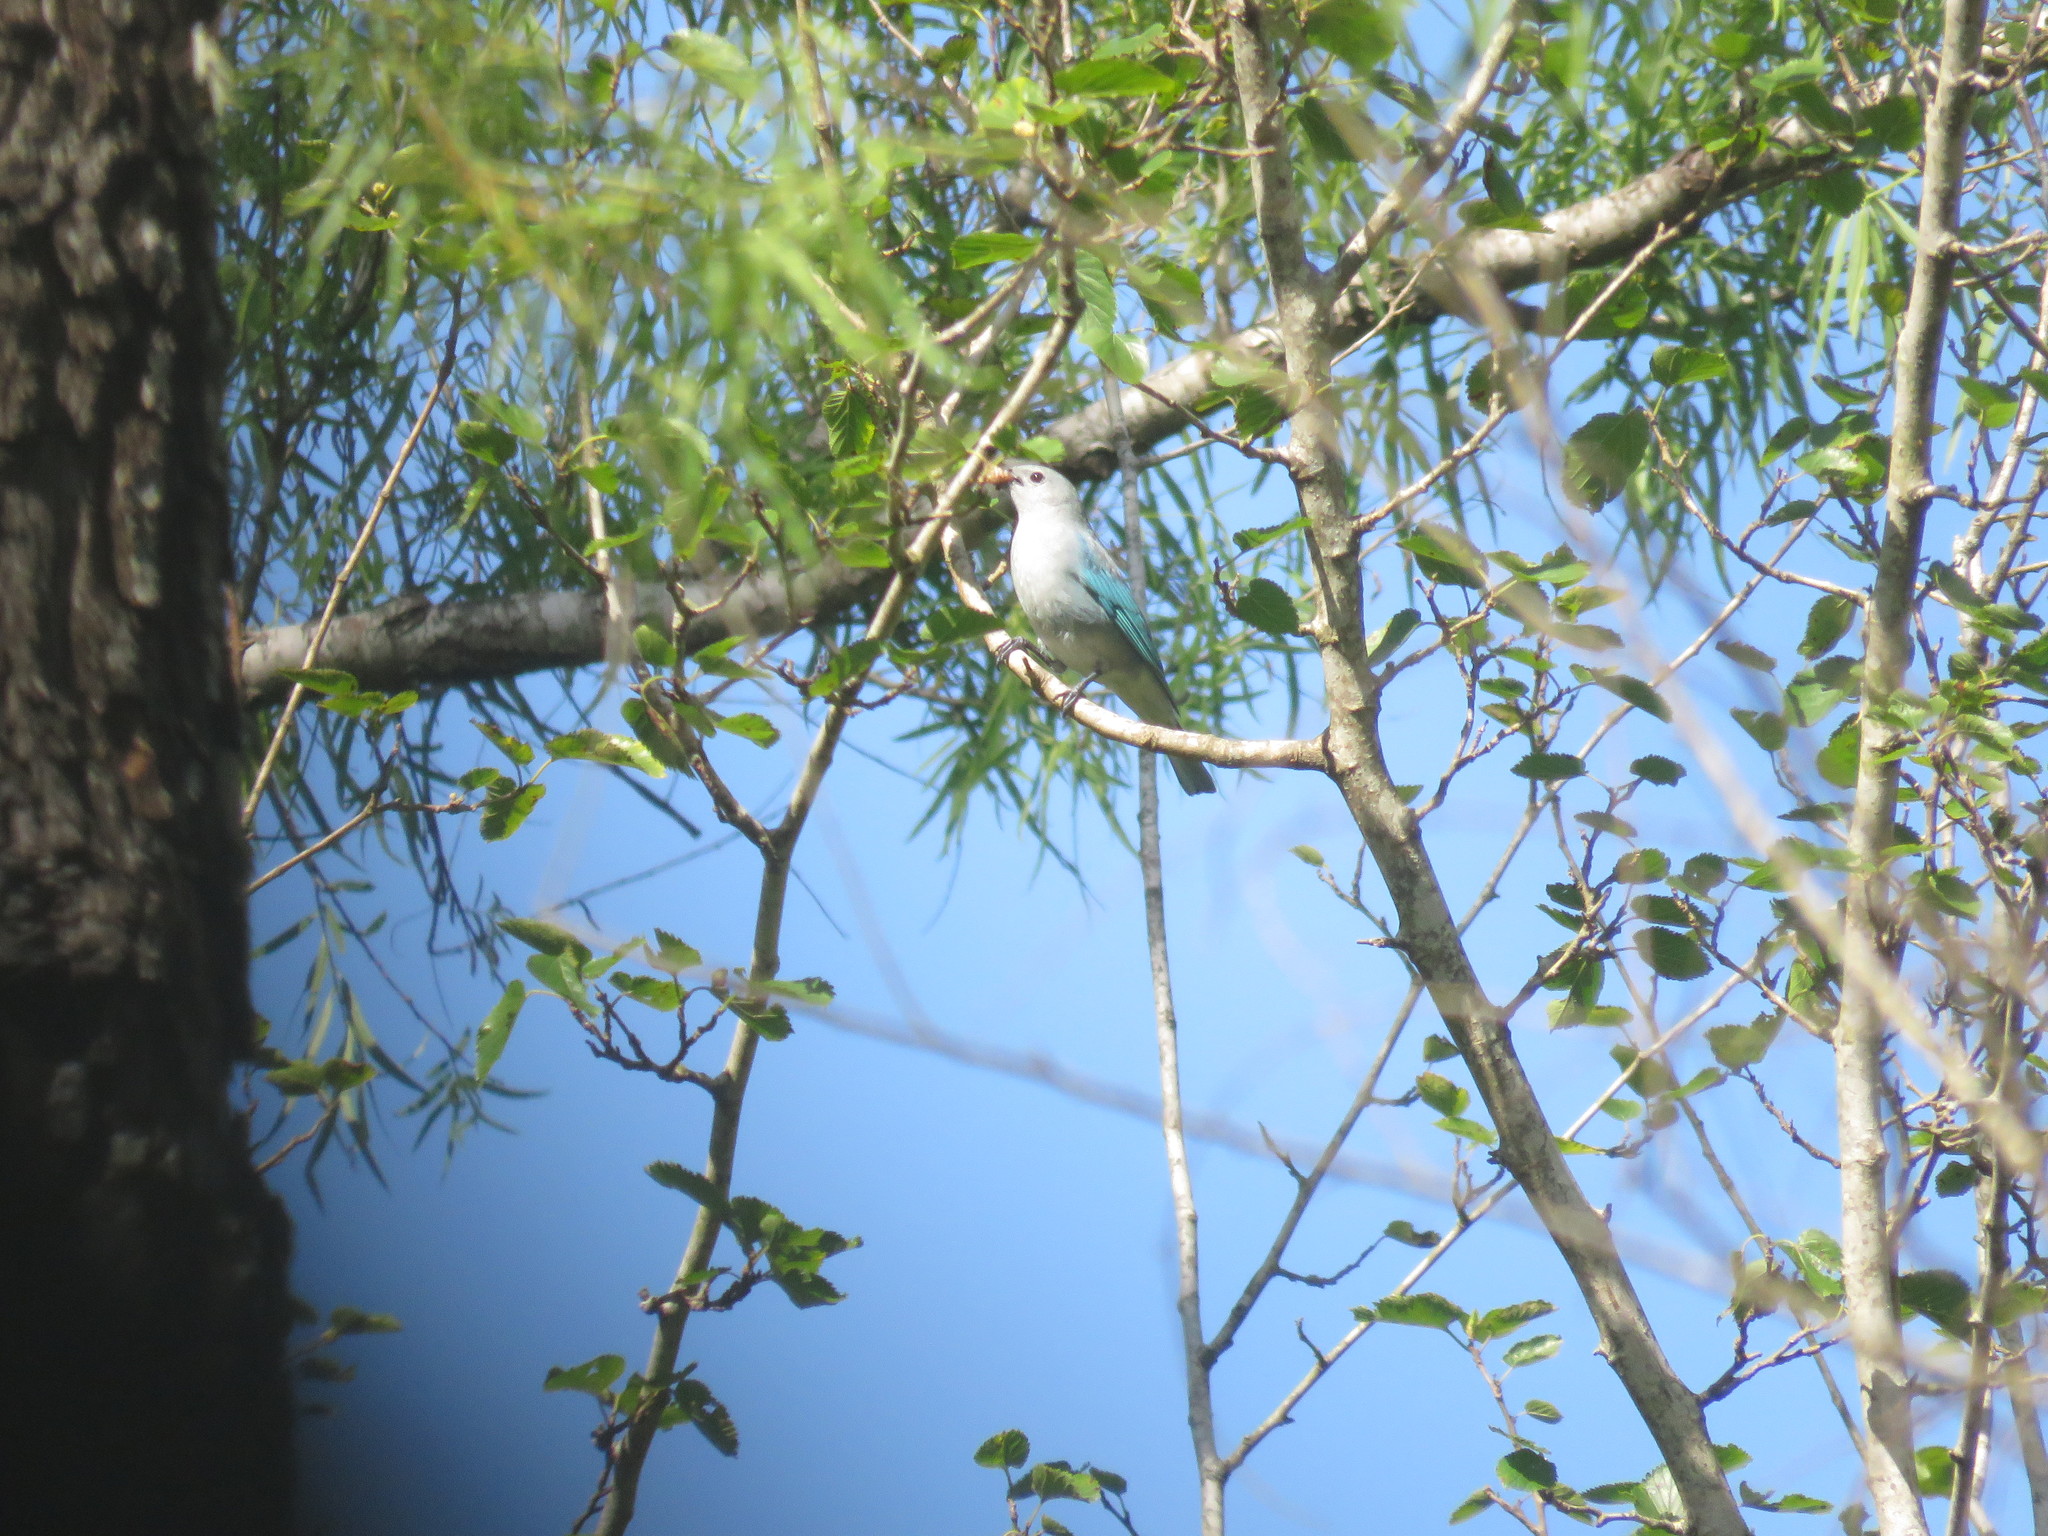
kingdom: Animalia
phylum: Chordata
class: Aves
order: Passeriformes
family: Thraupidae
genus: Thraupis
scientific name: Thraupis sayaca
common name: Sayaca tanager
